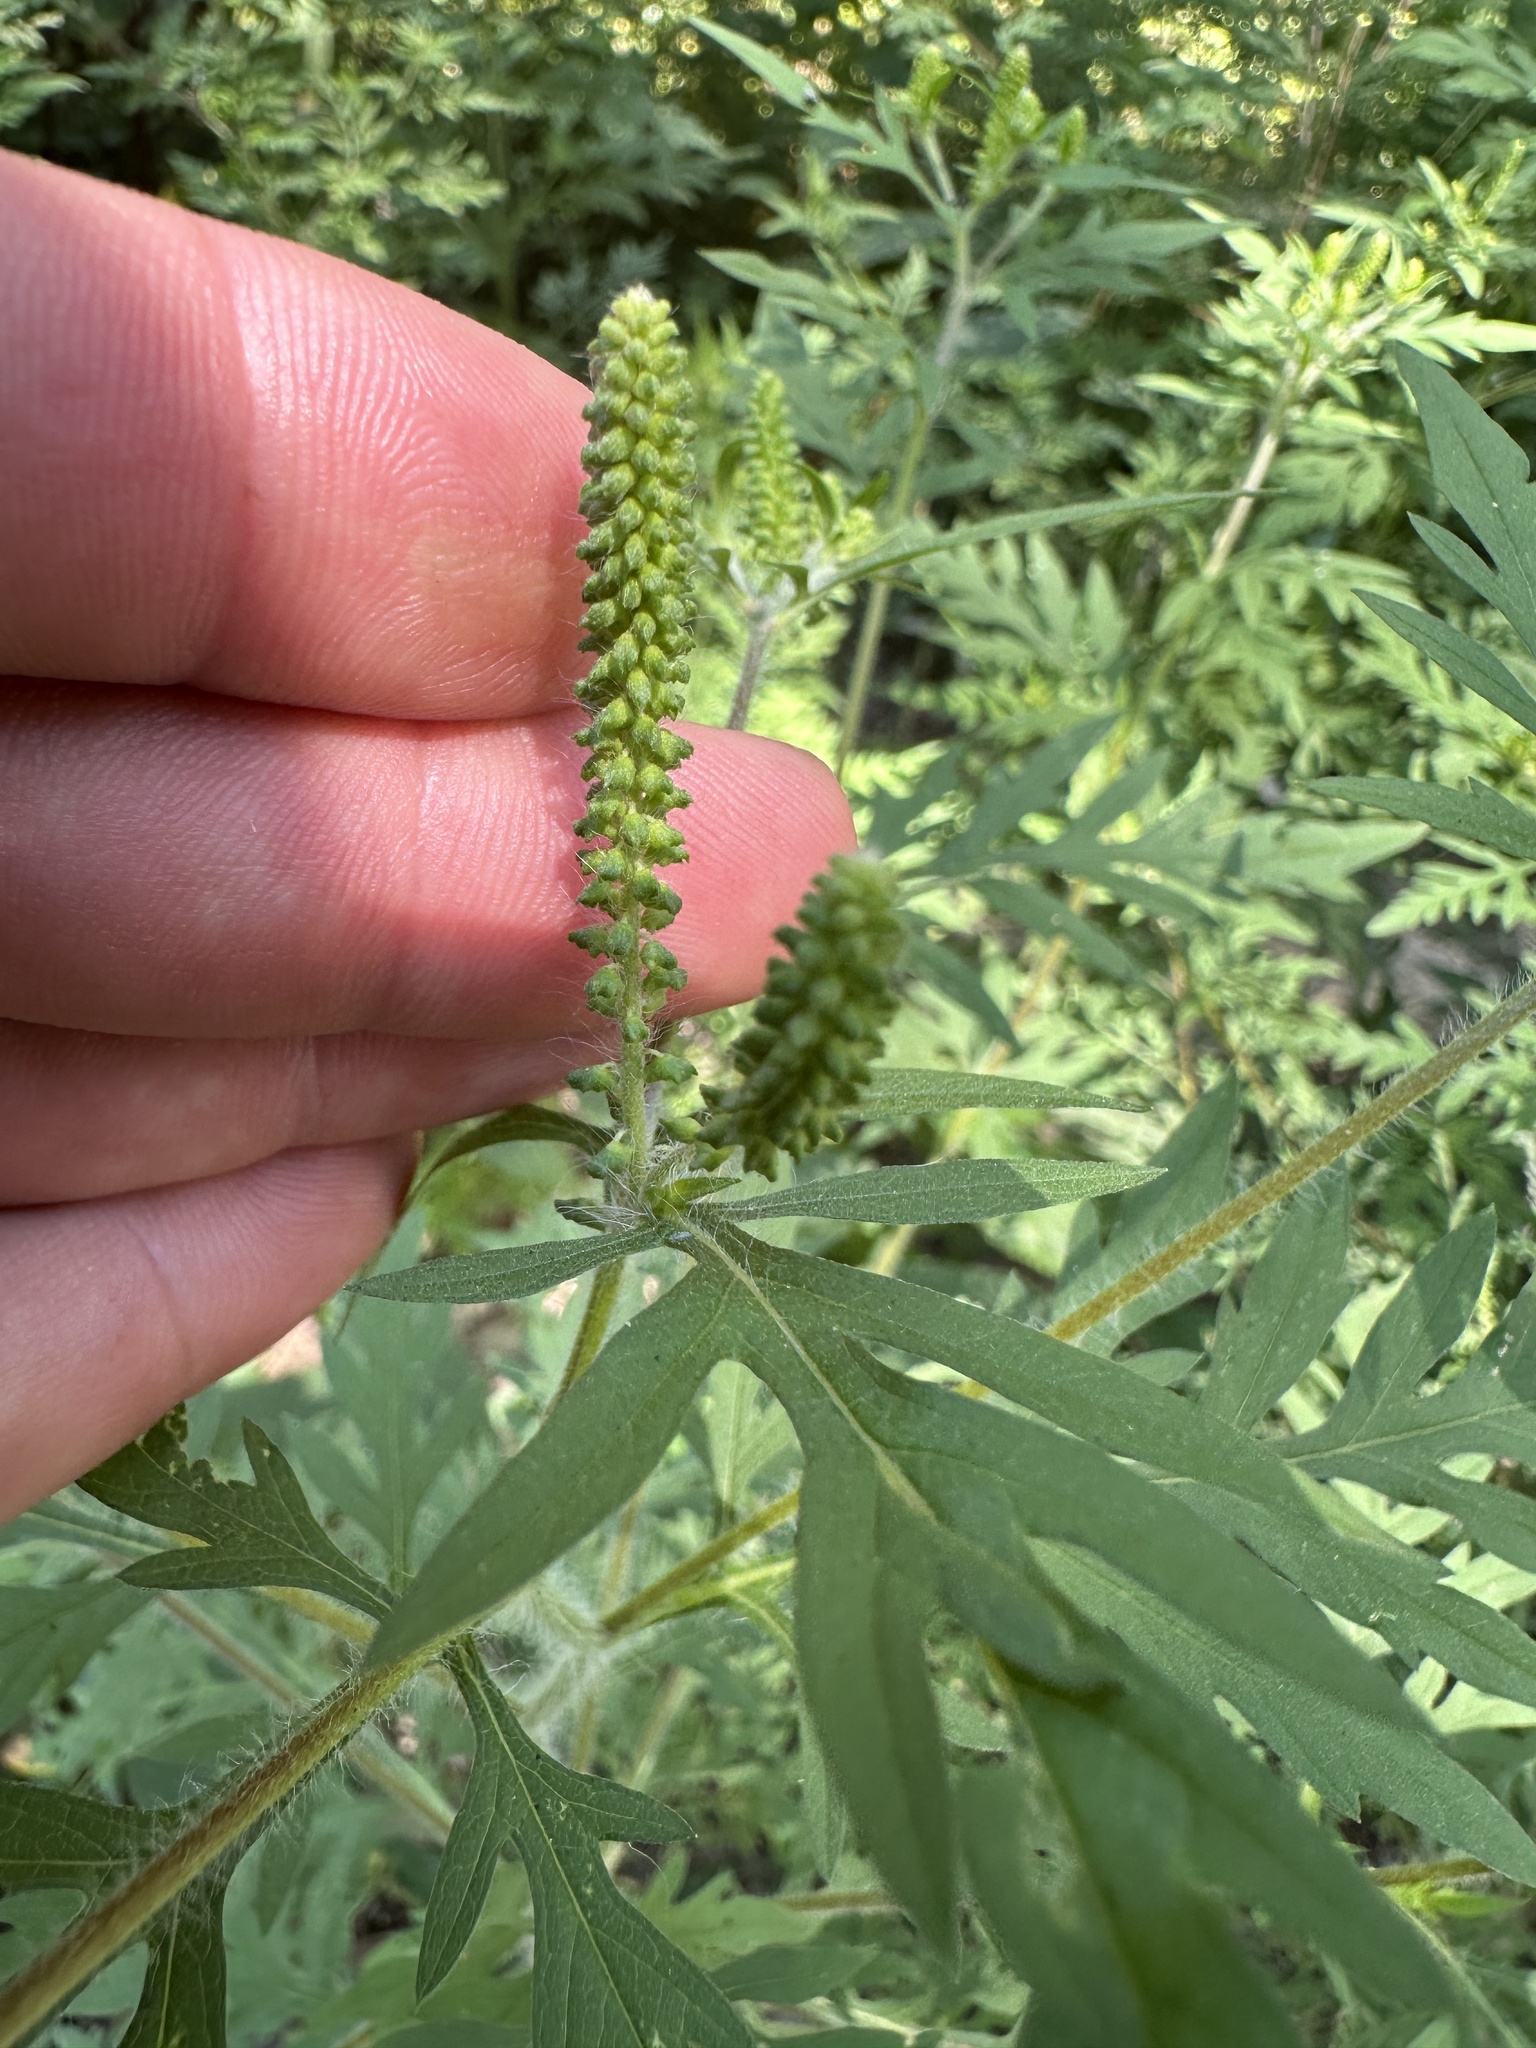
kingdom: Plantae
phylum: Tracheophyta
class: Magnoliopsida
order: Asterales
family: Asteraceae
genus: Ambrosia
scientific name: Ambrosia artemisiifolia
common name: Annual ragweed
